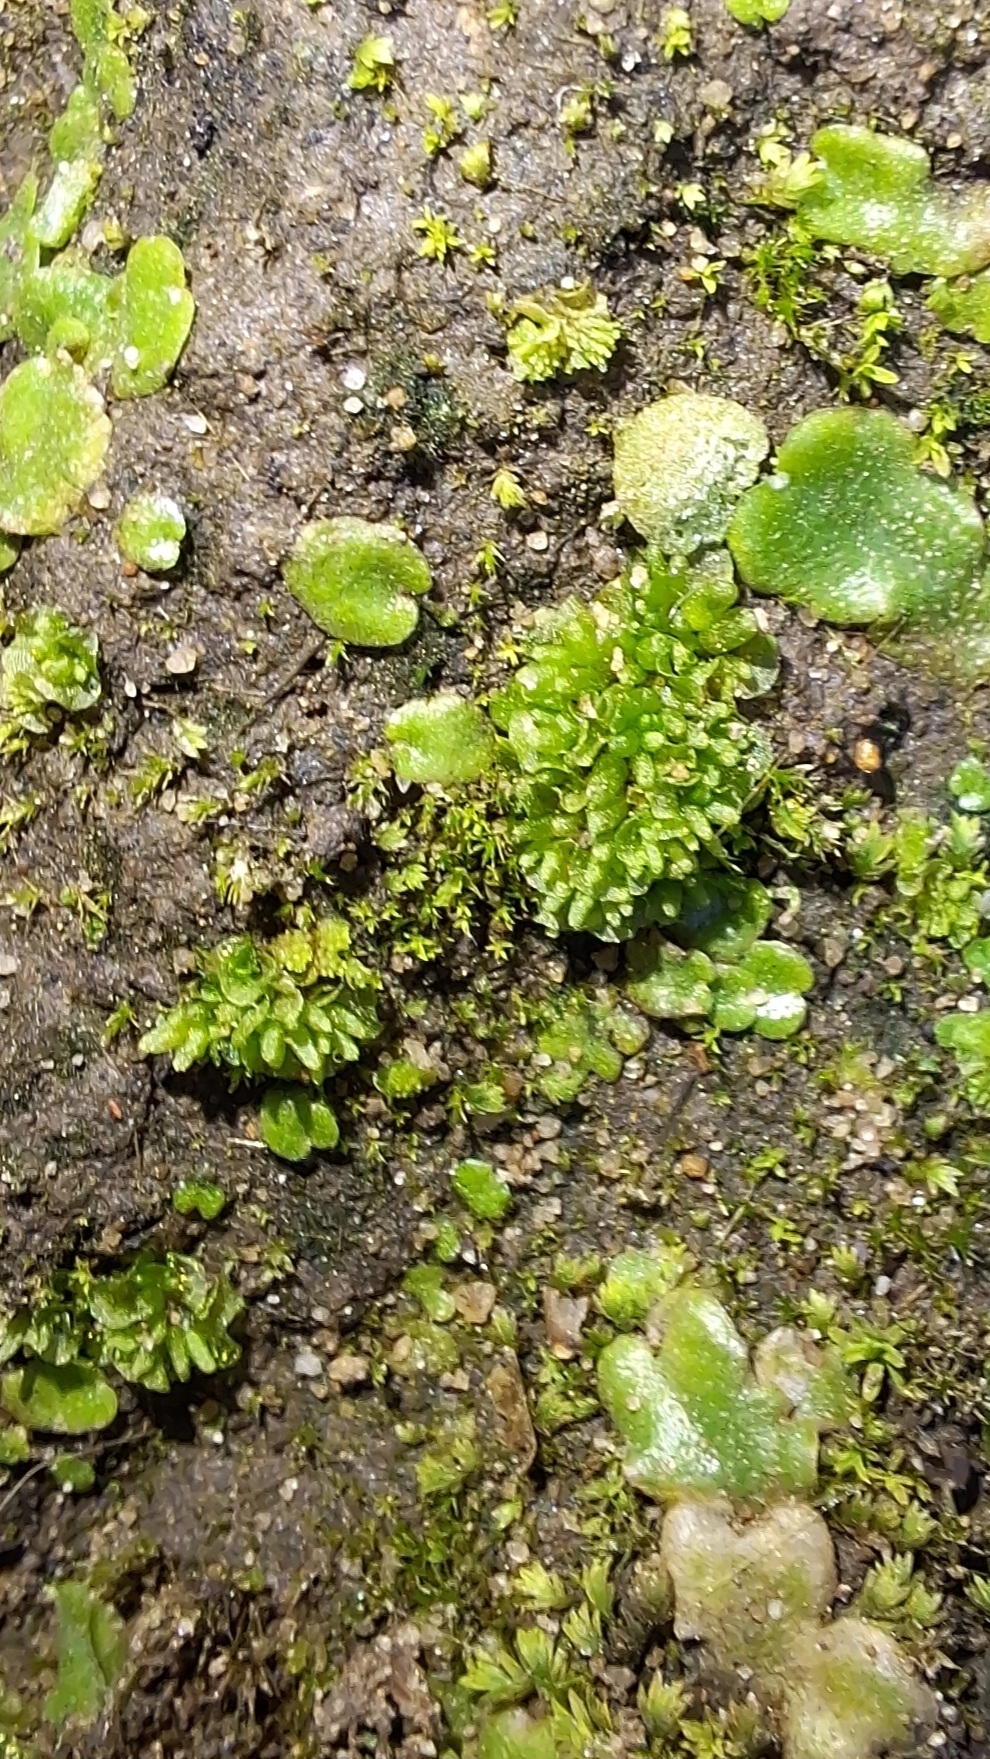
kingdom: Plantae
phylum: Marchantiophyta
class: Marchantiopsida
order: Sphaerocarpales
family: Sphaerocarpaceae
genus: Sphaerocarpos
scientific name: Sphaerocarpos texanus
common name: Texas balloonwort
